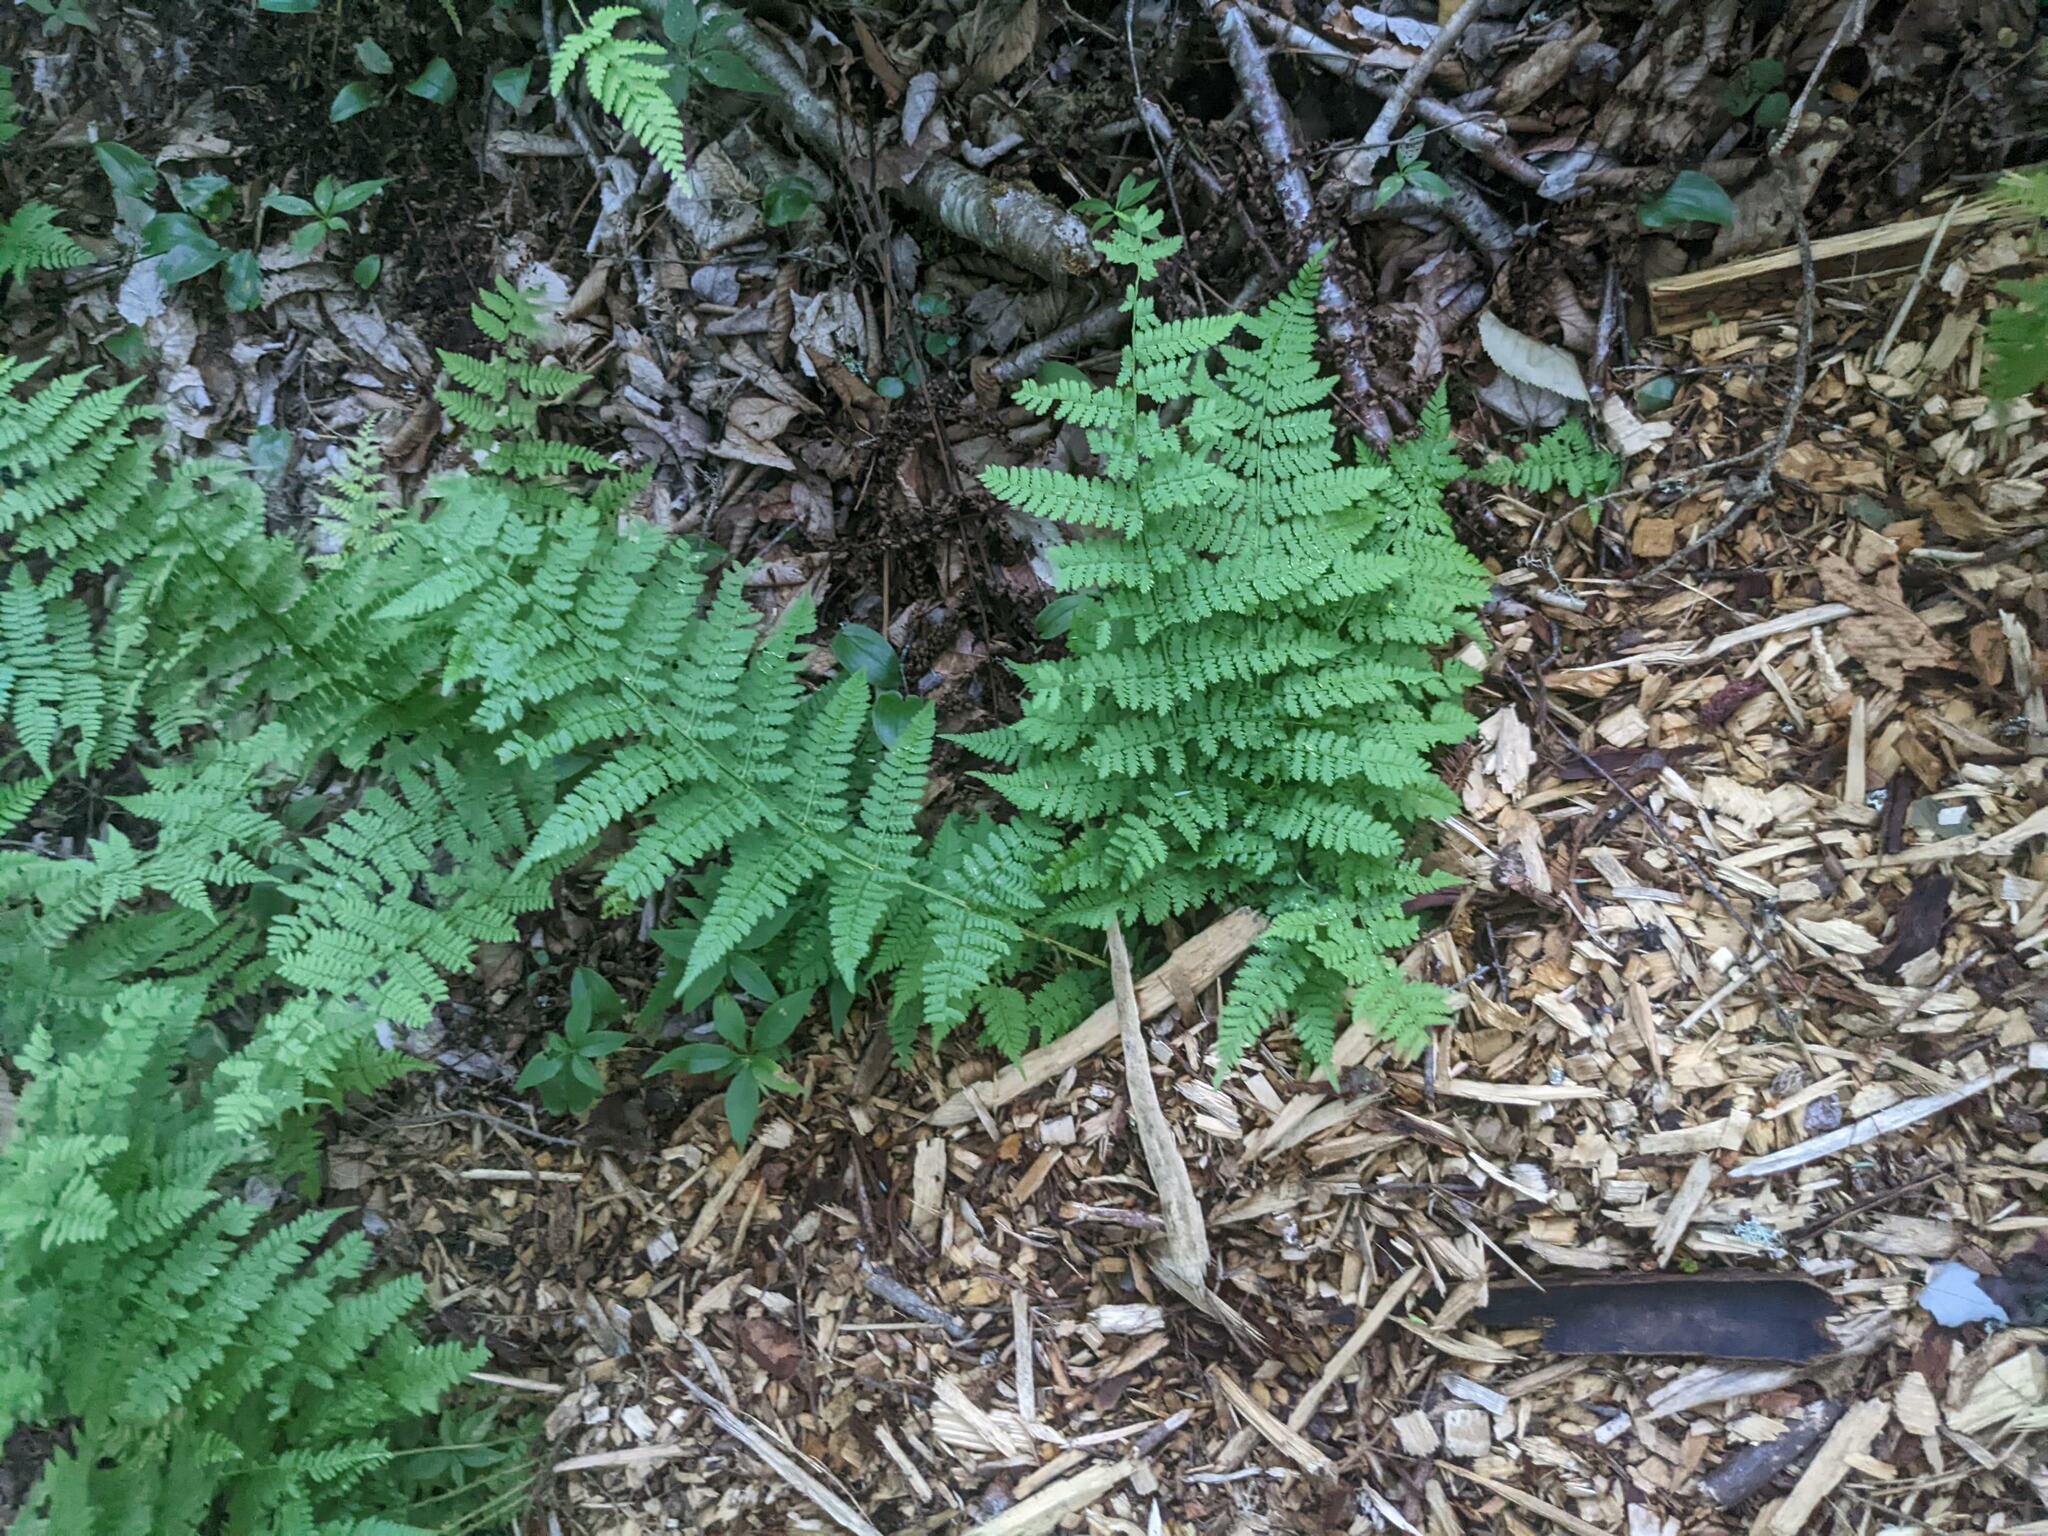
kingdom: Plantae
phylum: Tracheophyta
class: Polypodiopsida
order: Polypodiales
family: Dryopteridaceae
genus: Dryopteris
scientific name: Dryopteris intermedia
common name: Evergreen wood fern
